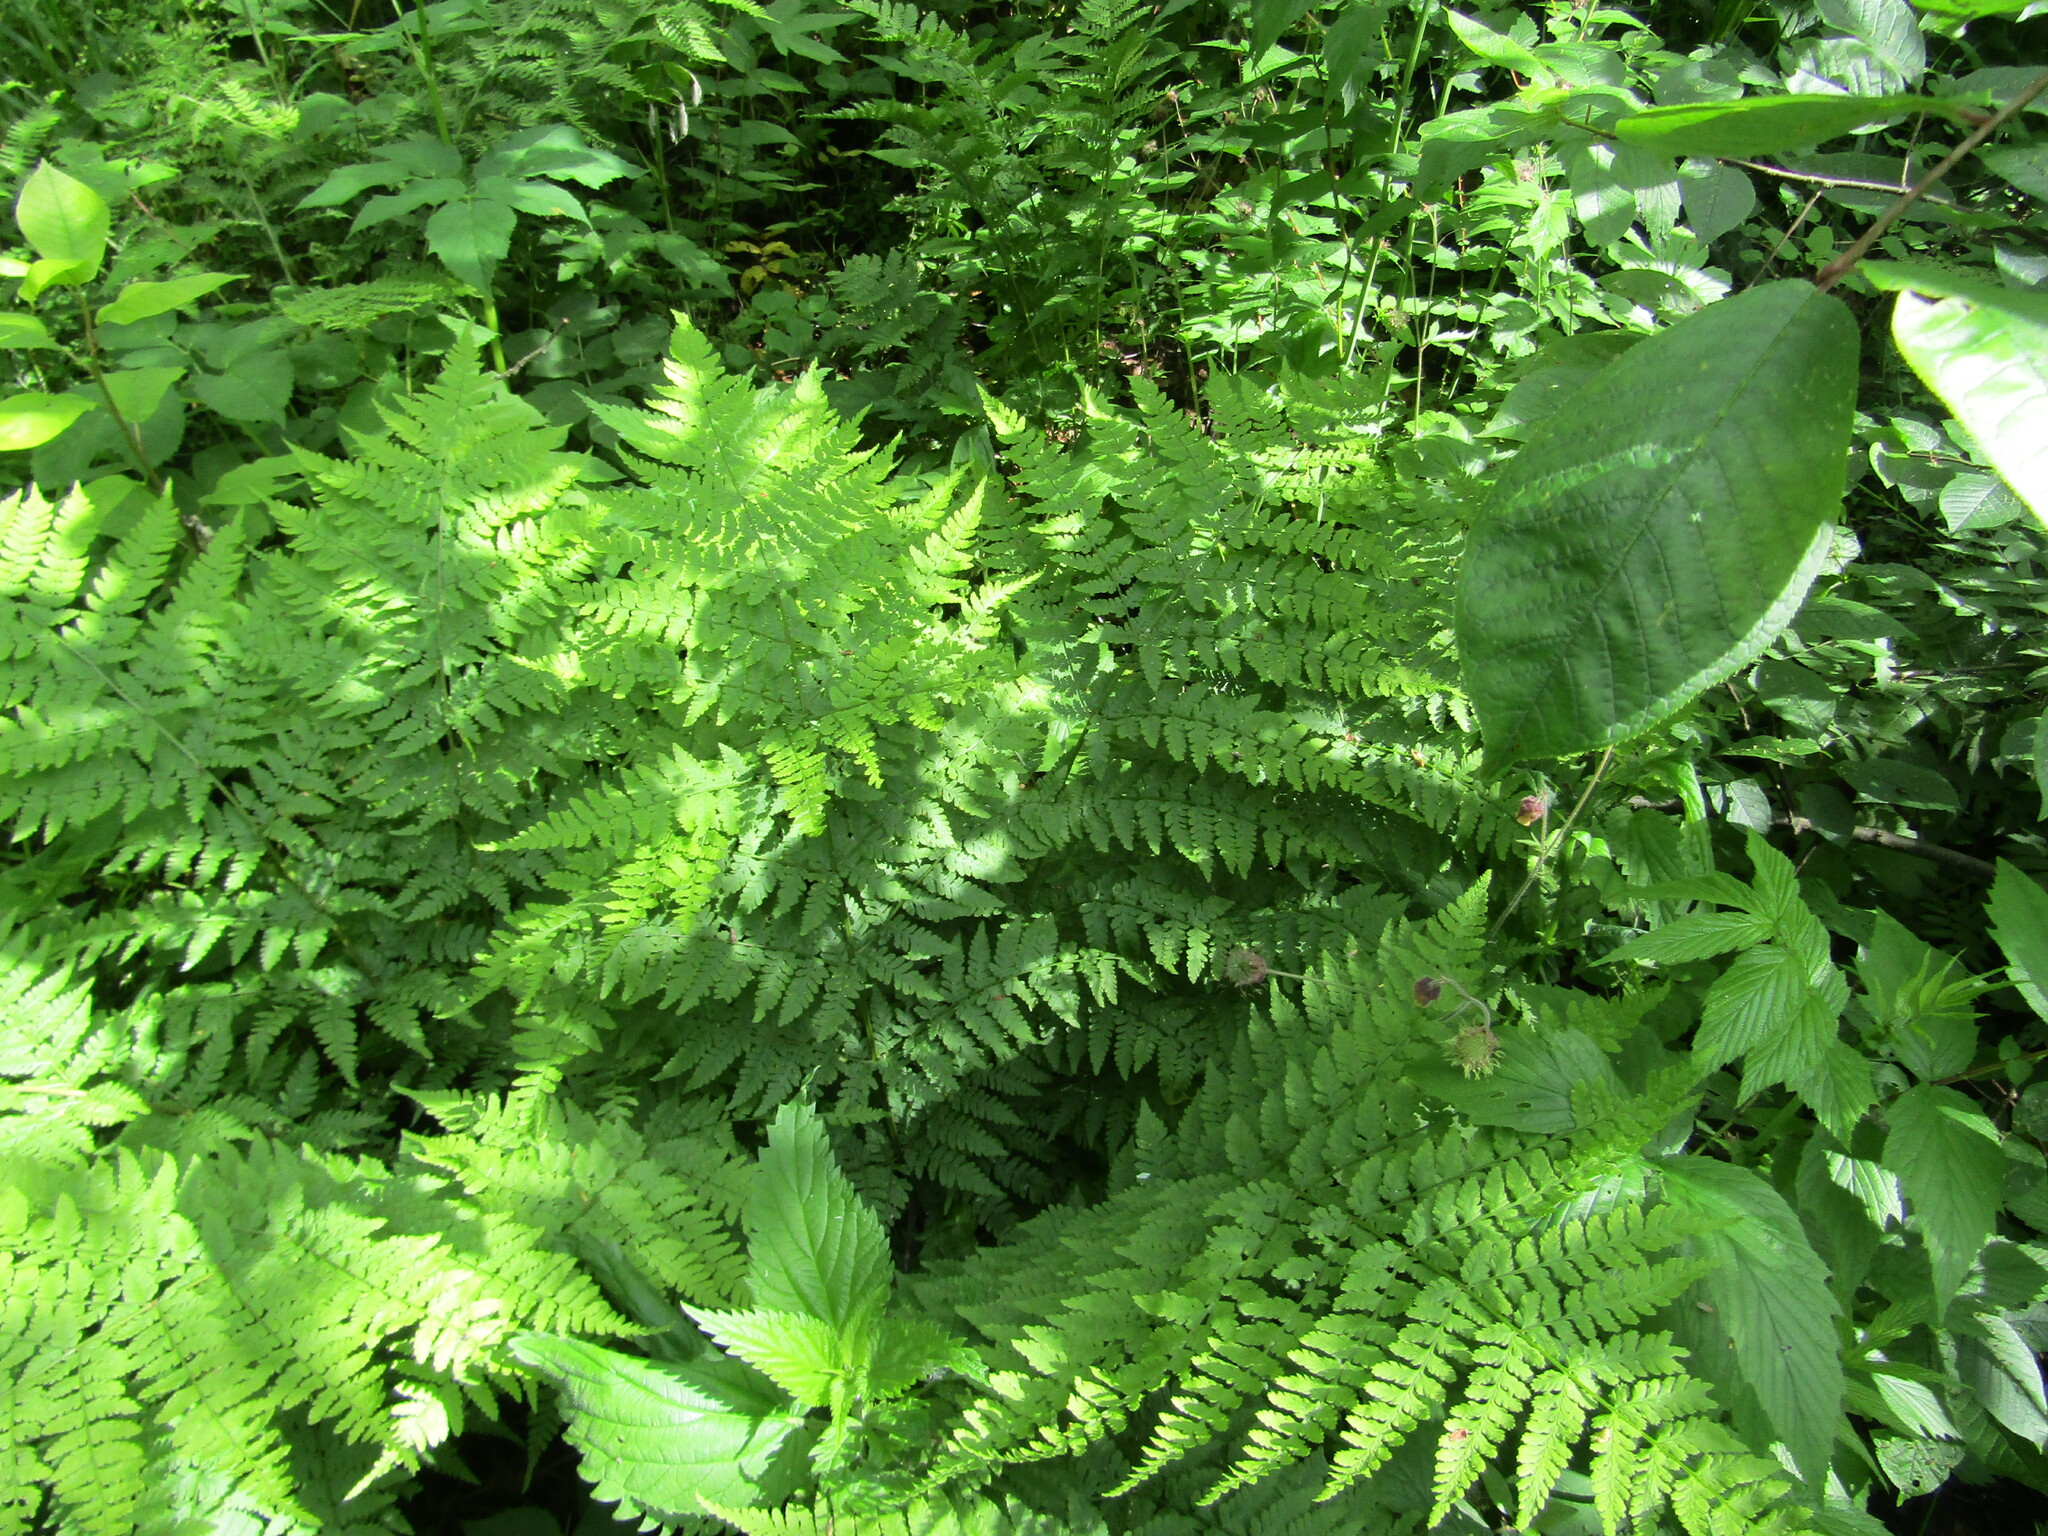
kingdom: Plantae
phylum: Tracheophyta
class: Polypodiopsida
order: Polypodiales
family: Dryopteridaceae
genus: Dryopteris
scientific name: Dryopteris carthusiana
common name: Narrow buckler-fern
